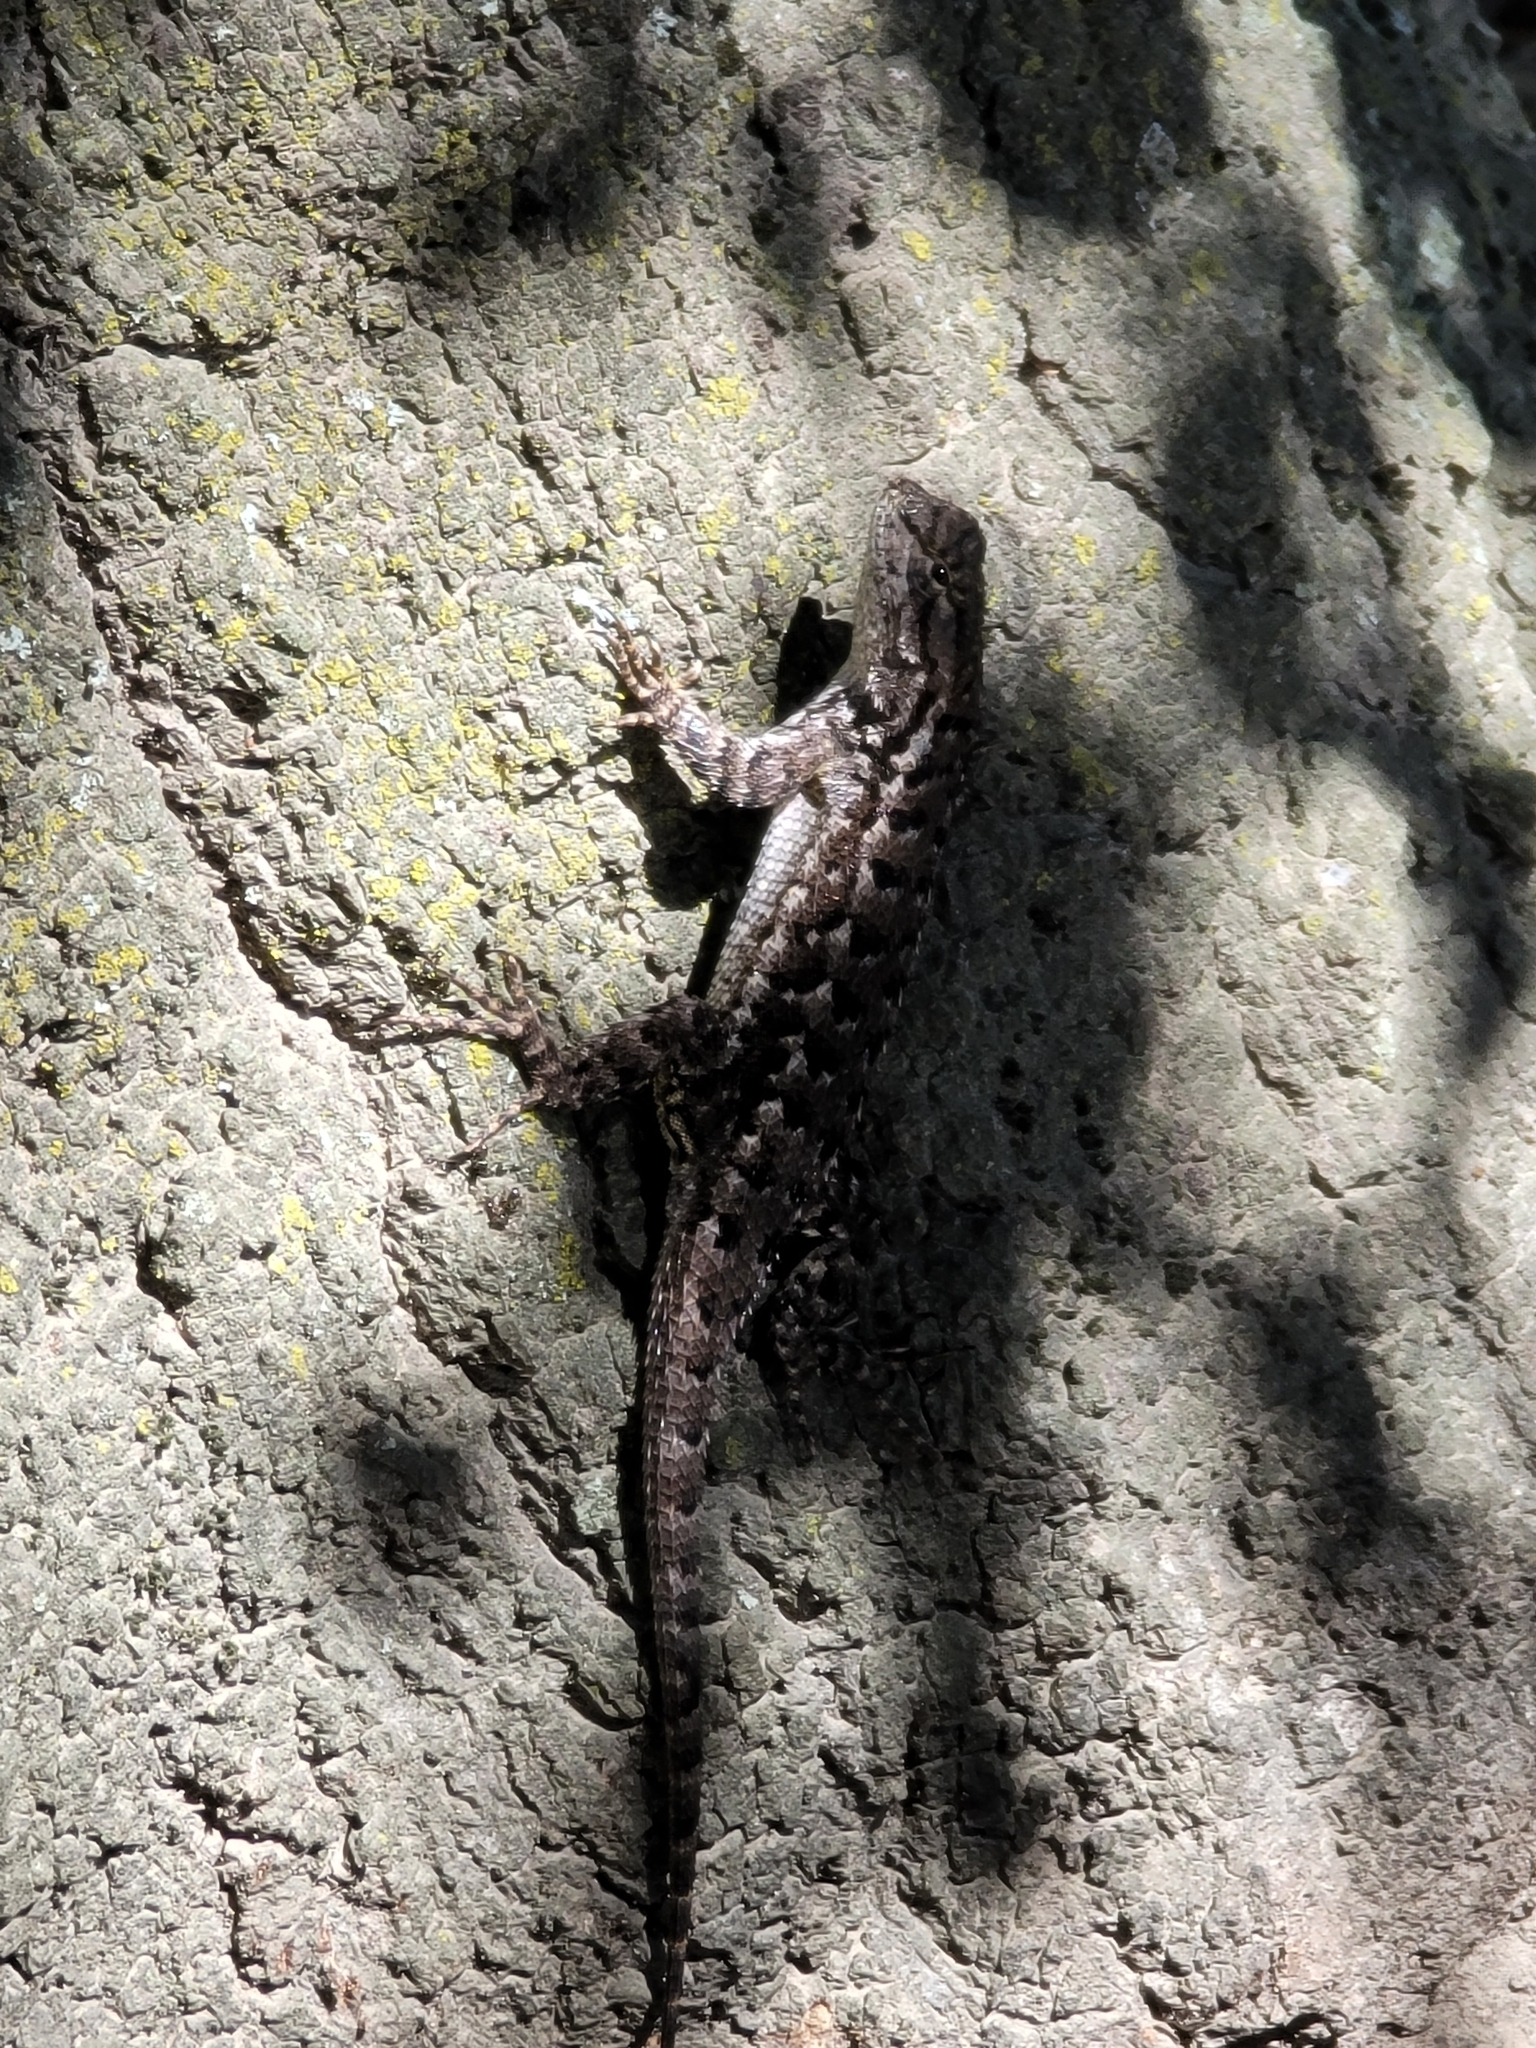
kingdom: Animalia
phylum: Chordata
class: Squamata
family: Phrynosomatidae
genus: Sceloporus
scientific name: Sceloporus occidentalis
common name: Western fence lizard
